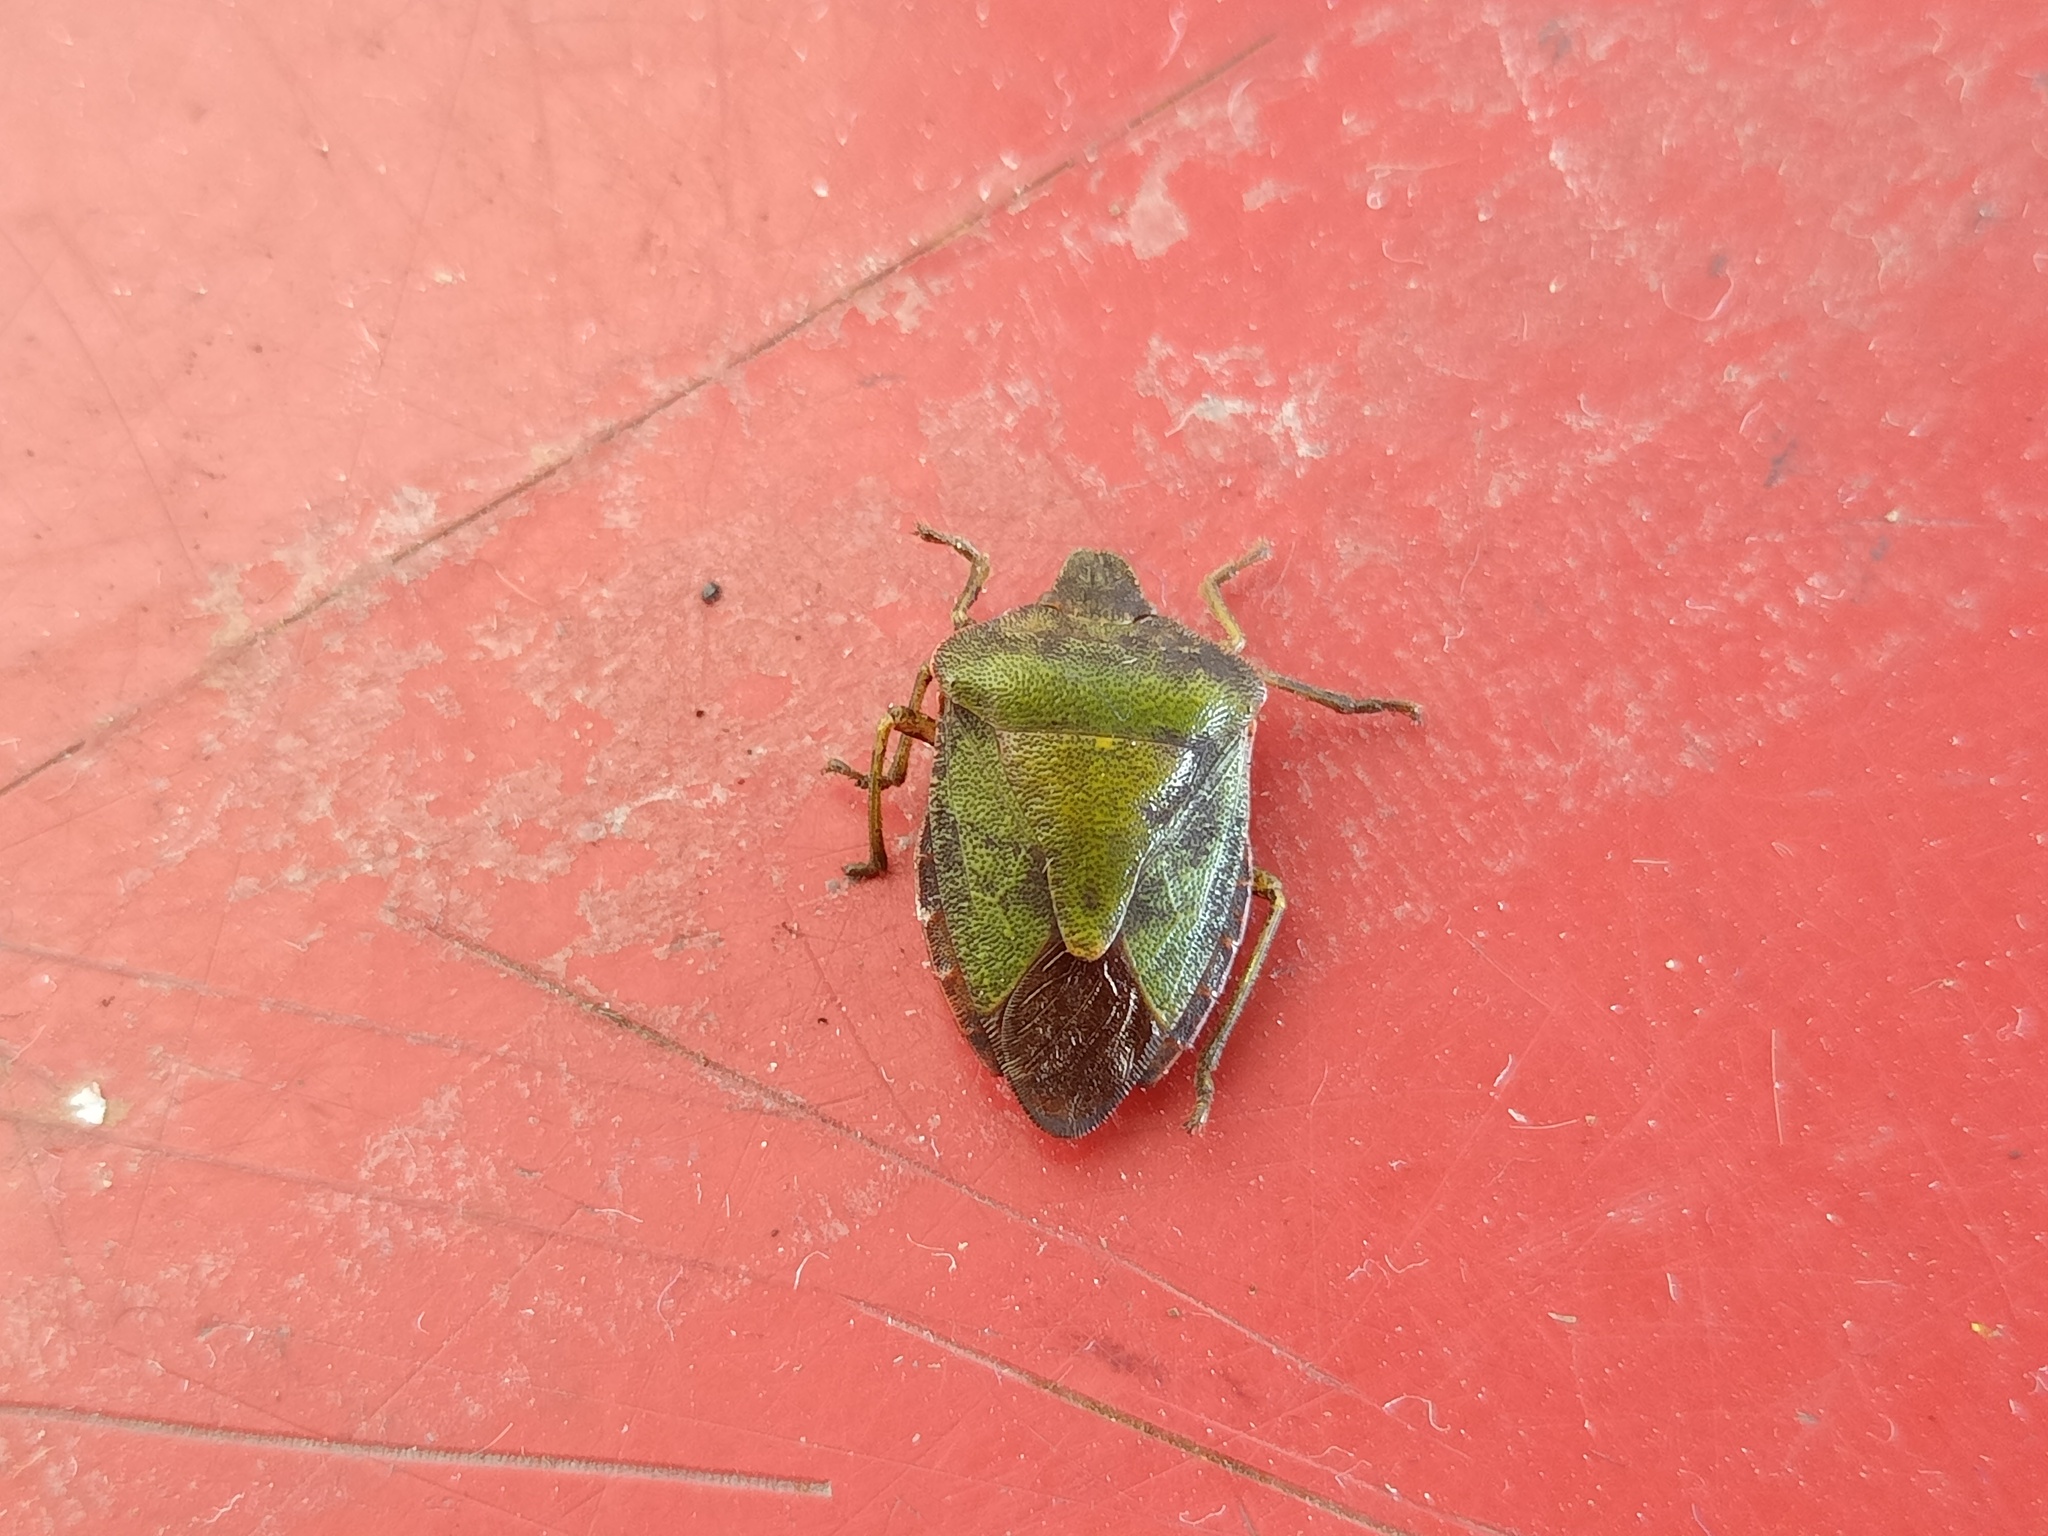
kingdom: Animalia
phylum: Arthropoda
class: Insecta
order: Hemiptera
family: Pentatomidae
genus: Palomena
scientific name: Palomena prasina
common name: Green shieldbug
